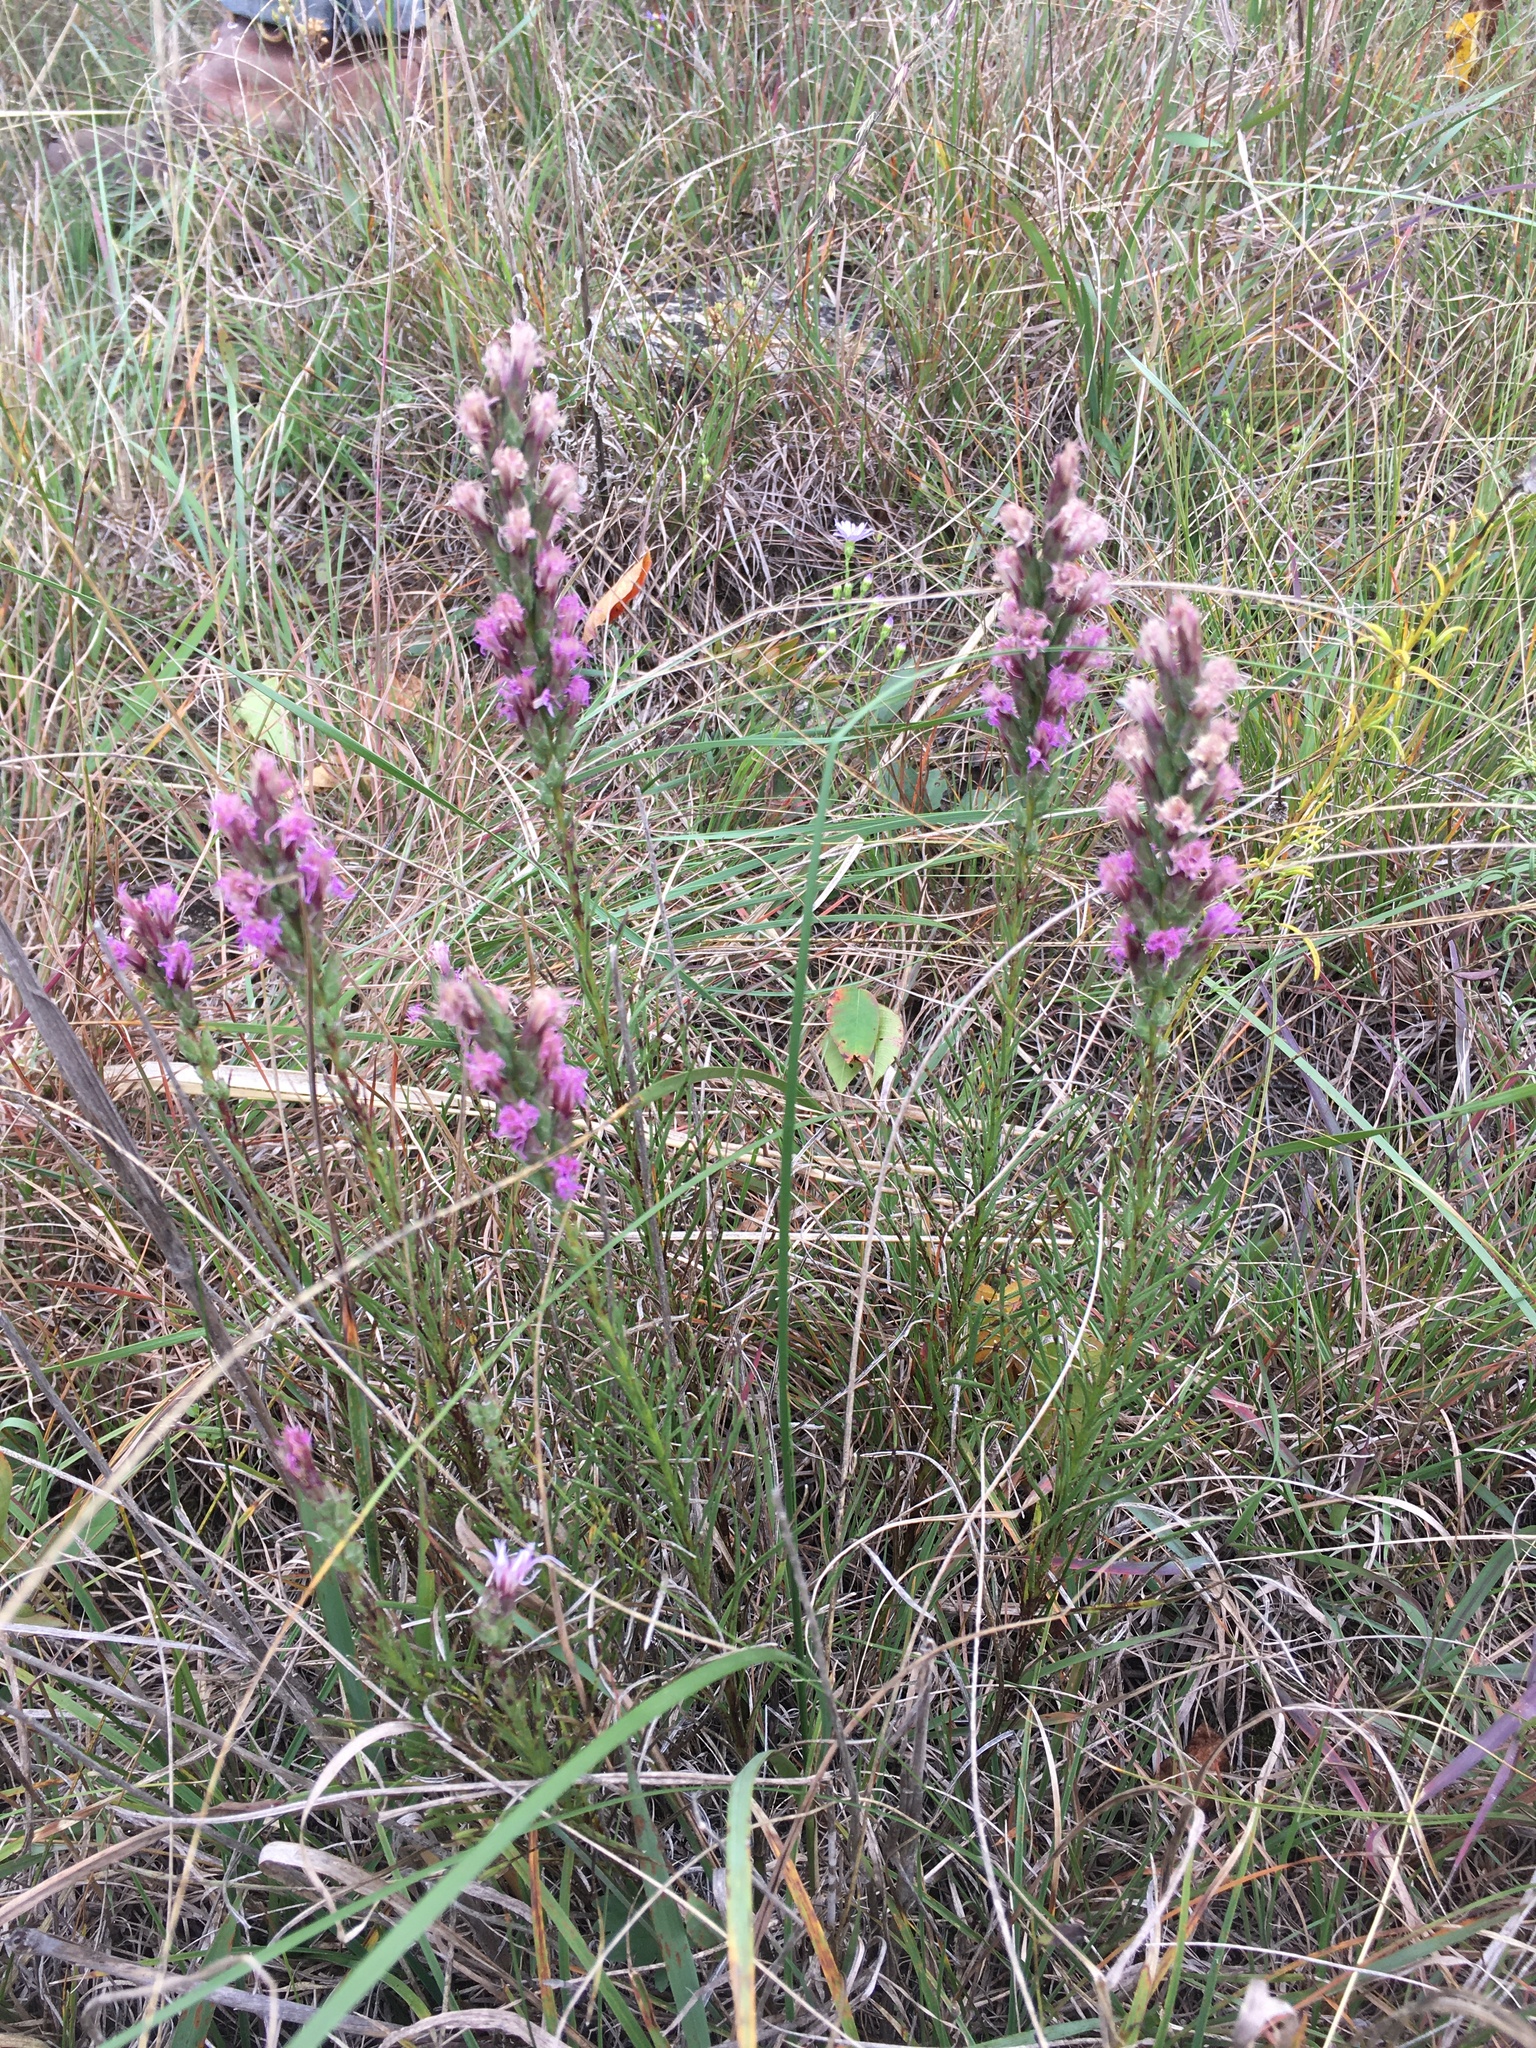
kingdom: Plantae
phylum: Tracheophyta
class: Magnoliopsida
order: Asterales
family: Asteraceae
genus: Liatris
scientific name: Liatris punctata
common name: Dotted gayfeather
